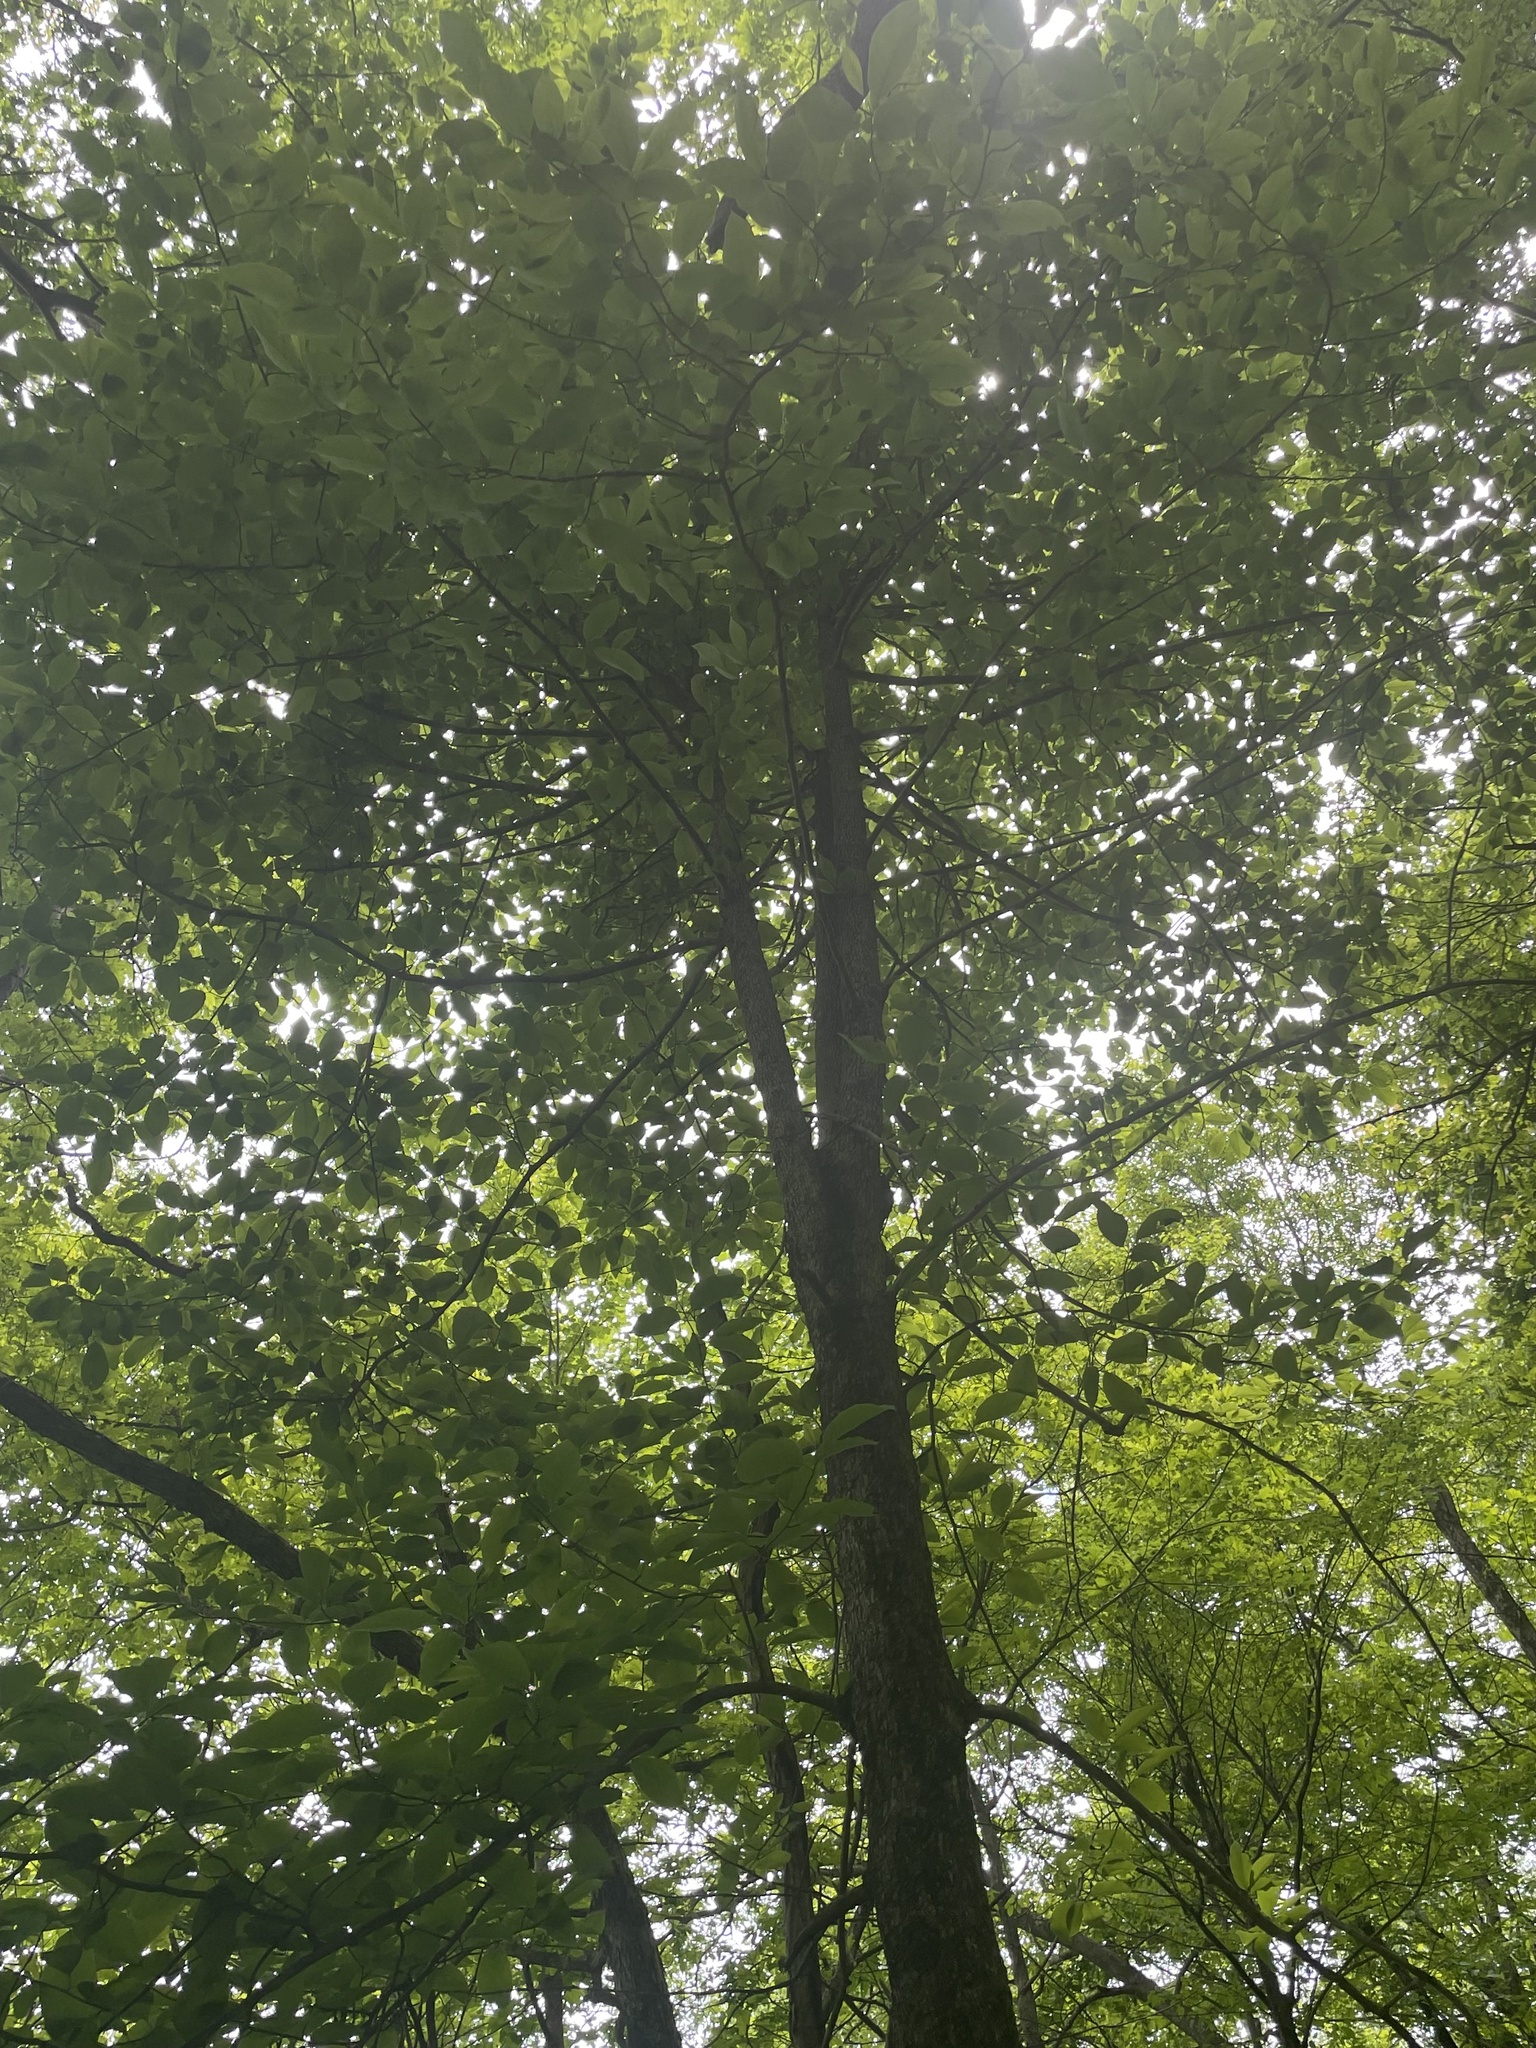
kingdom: Plantae
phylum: Tracheophyta
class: Magnoliopsida
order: Magnoliales
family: Magnoliaceae
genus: Magnolia
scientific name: Magnolia acuminata
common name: Cucumber magnolia
